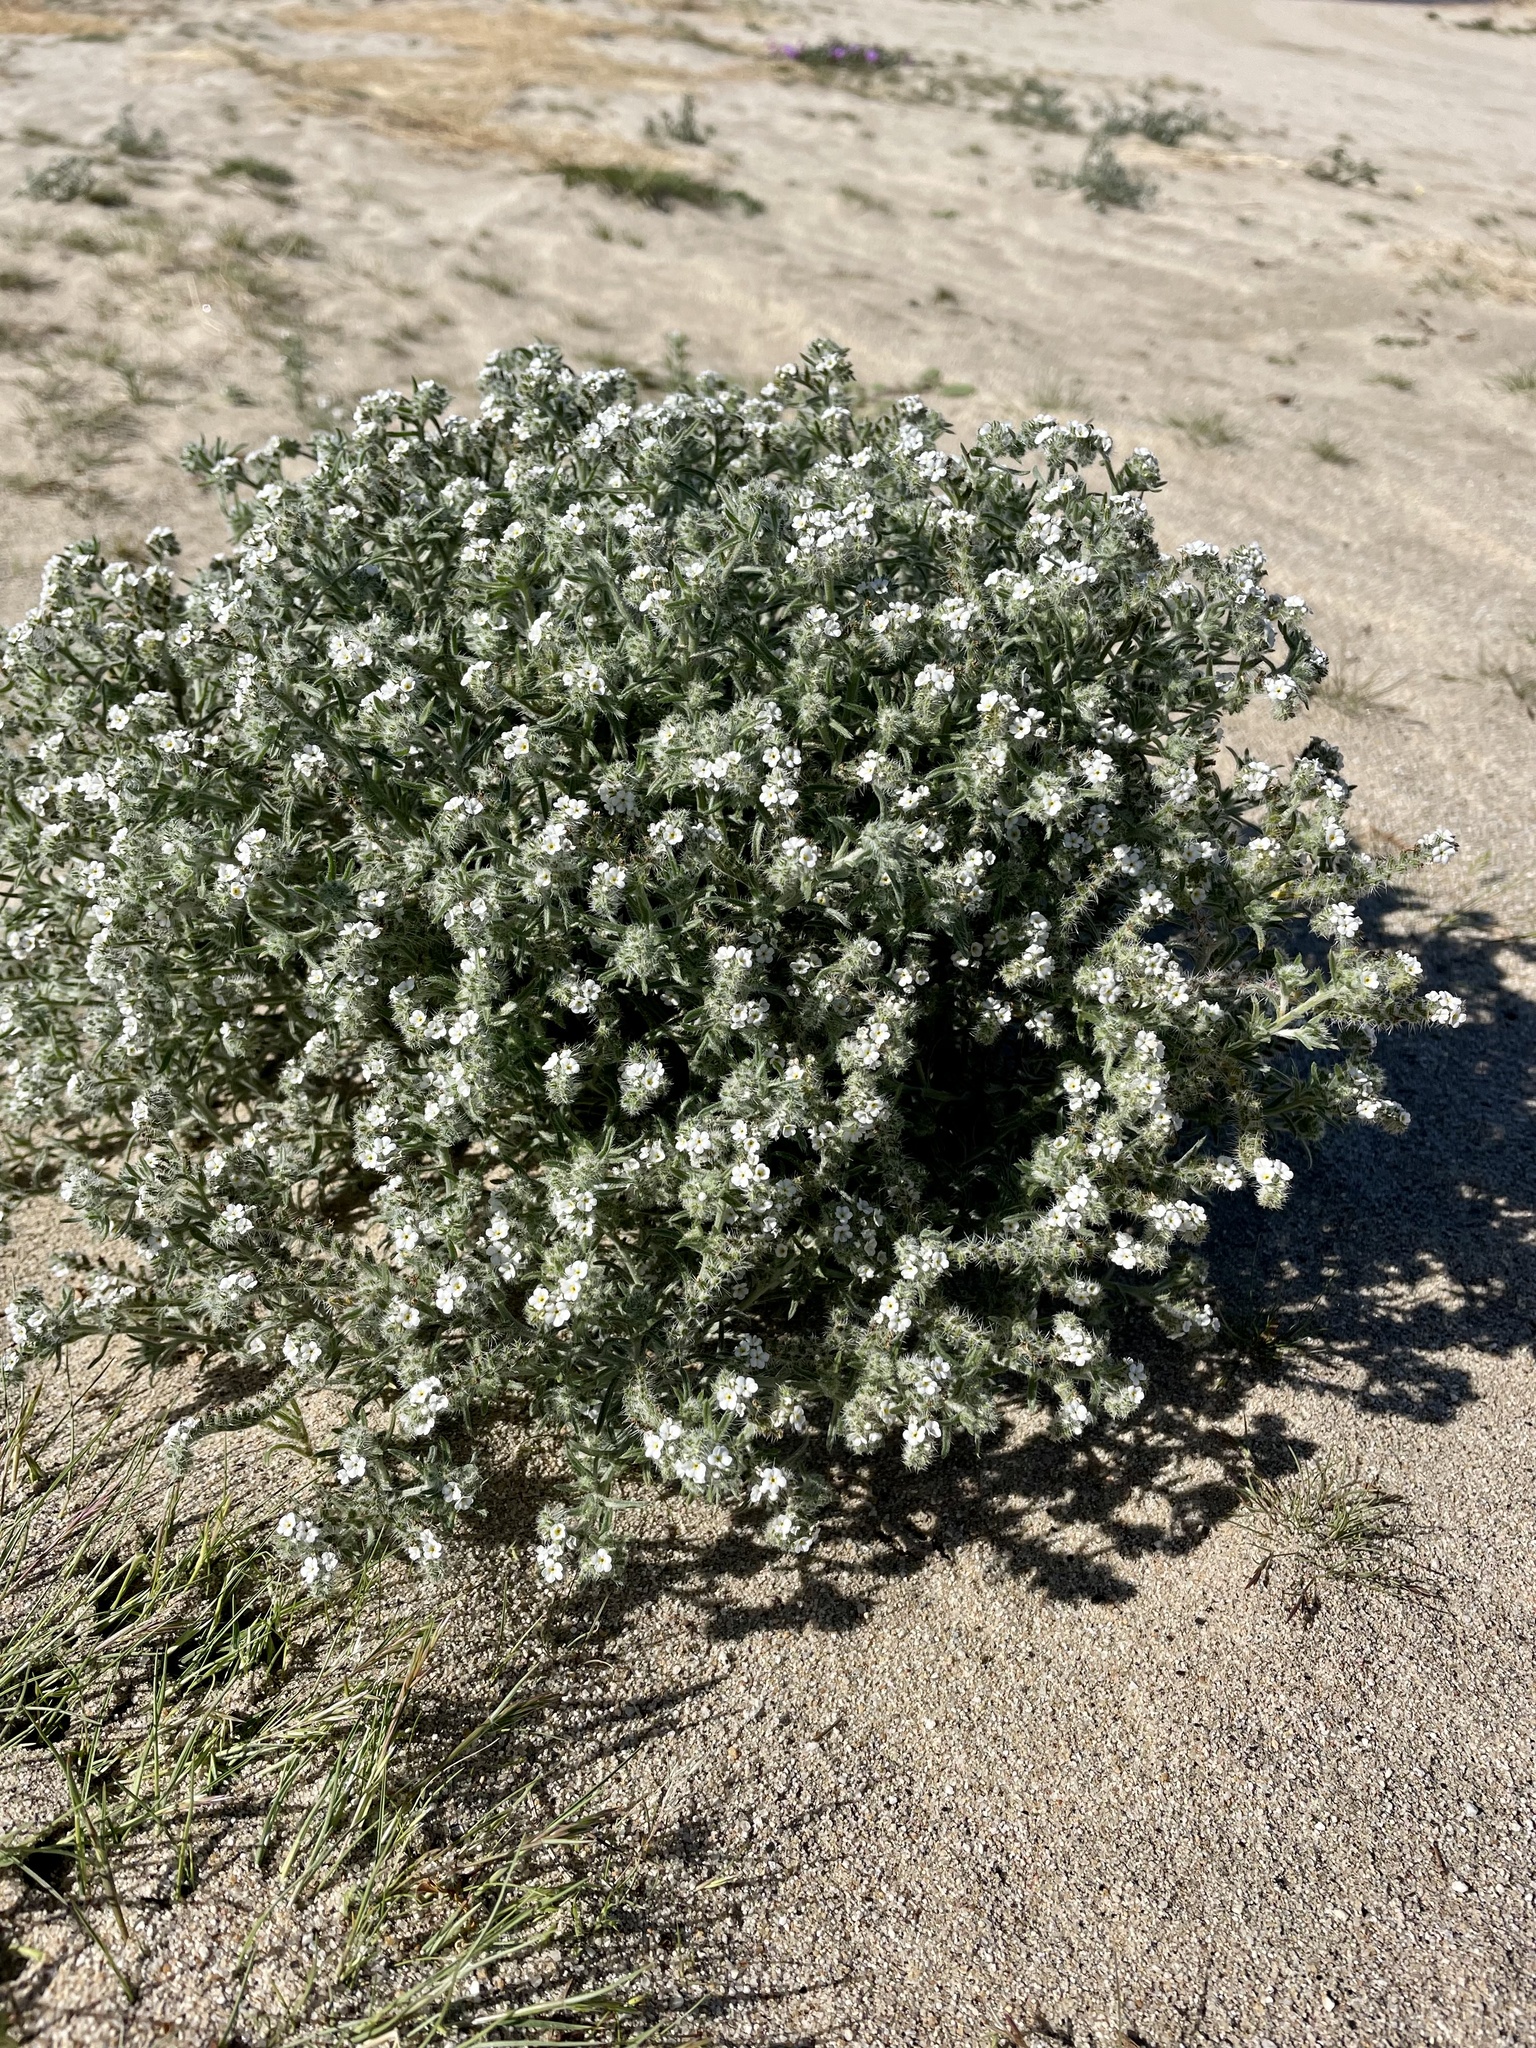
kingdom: Plantae
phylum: Tracheophyta
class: Magnoliopsida
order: Boraginales
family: Boraginaceae
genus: Johnstonella
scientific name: Johnstonella angustifolia
